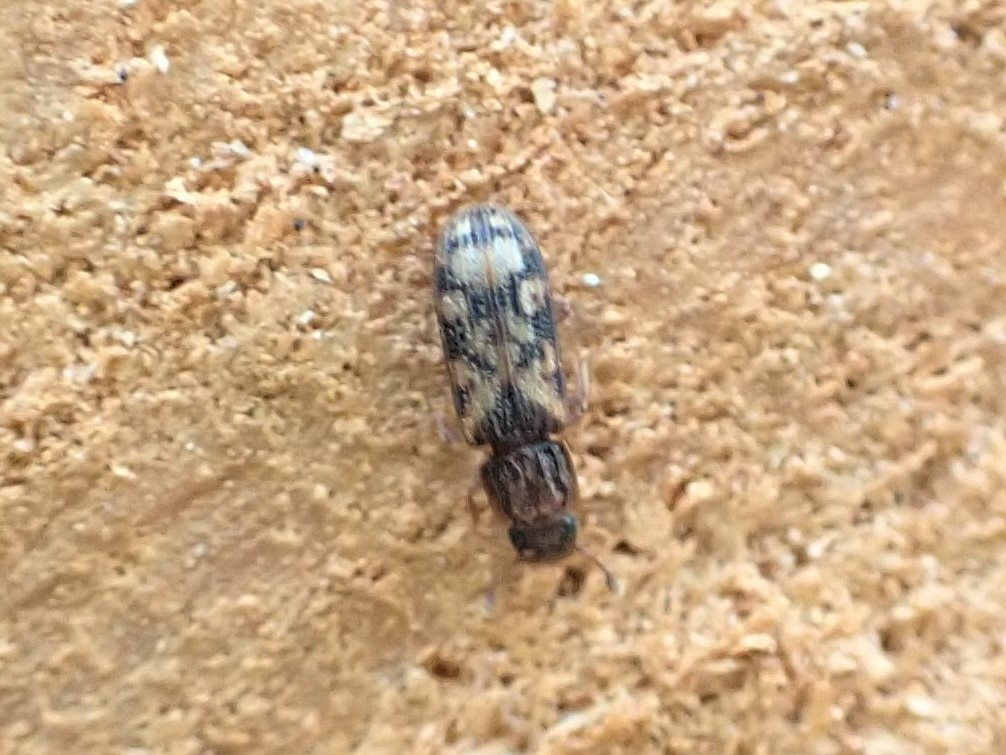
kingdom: Animalia
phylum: Arthropoda
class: Insecta
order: Coleoptera
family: Zopheridae
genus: Bitoma
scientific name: Bitoma insularis
